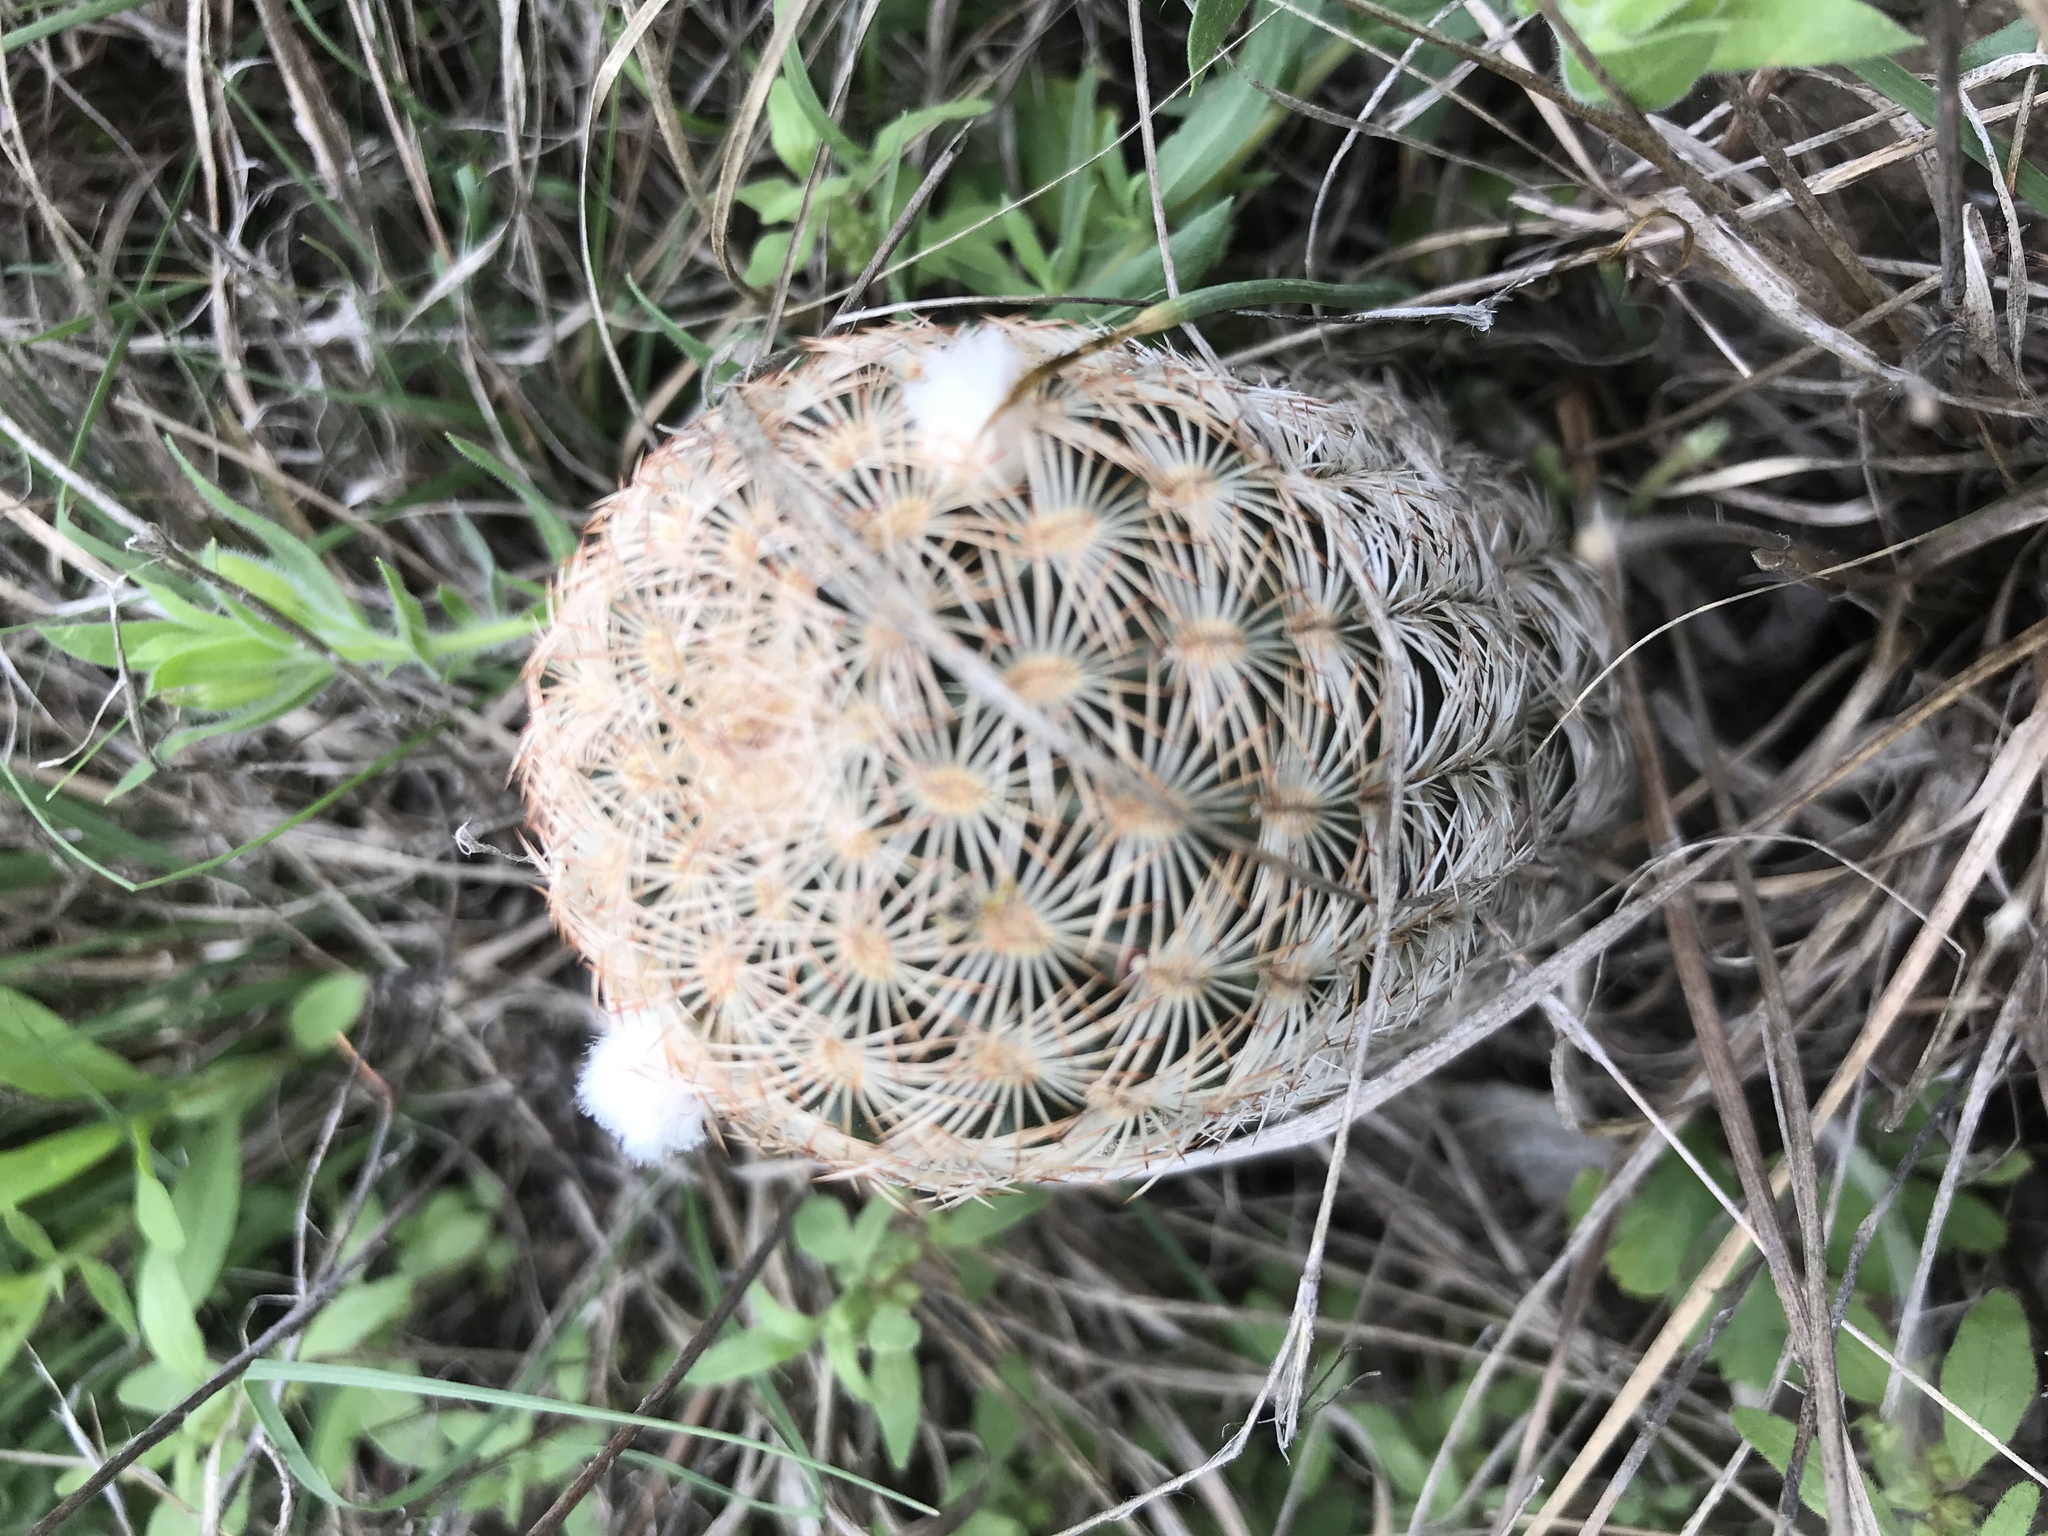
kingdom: Plantae
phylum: Tracheophyta
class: Magnoliopsida
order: Caryophyllales
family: Cactaceae
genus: Echinocereus
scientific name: Echinocereus reichenbachii
